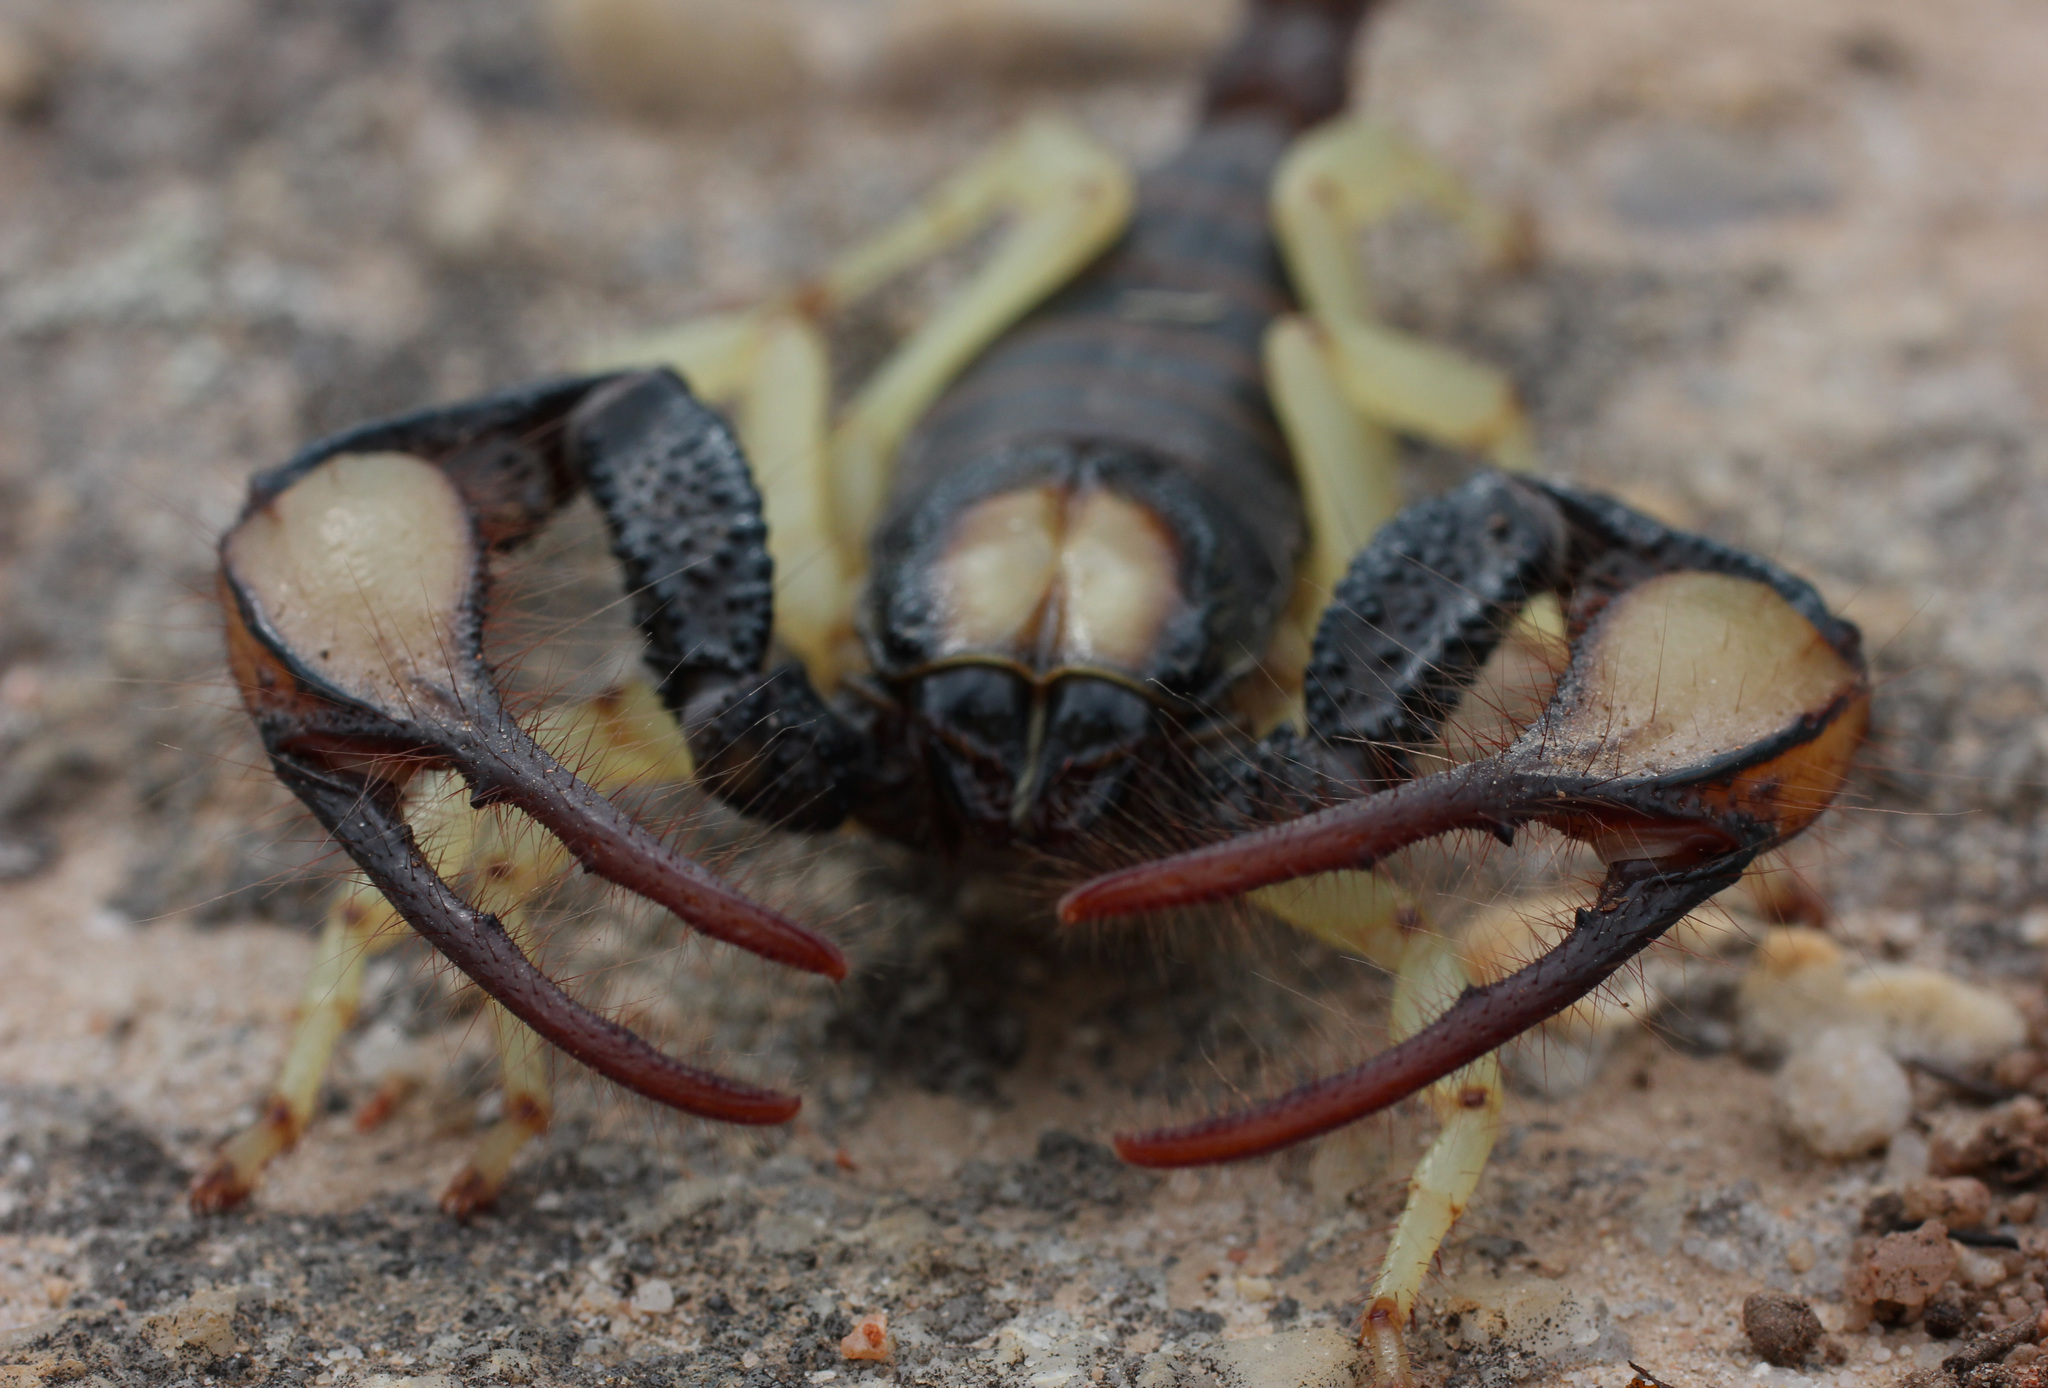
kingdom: Animalia
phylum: Arthropoda
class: Arachnida
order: Scorpiones
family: Scorpionidae
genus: Opistophthalmus
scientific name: Opistophthalmus pallipes
